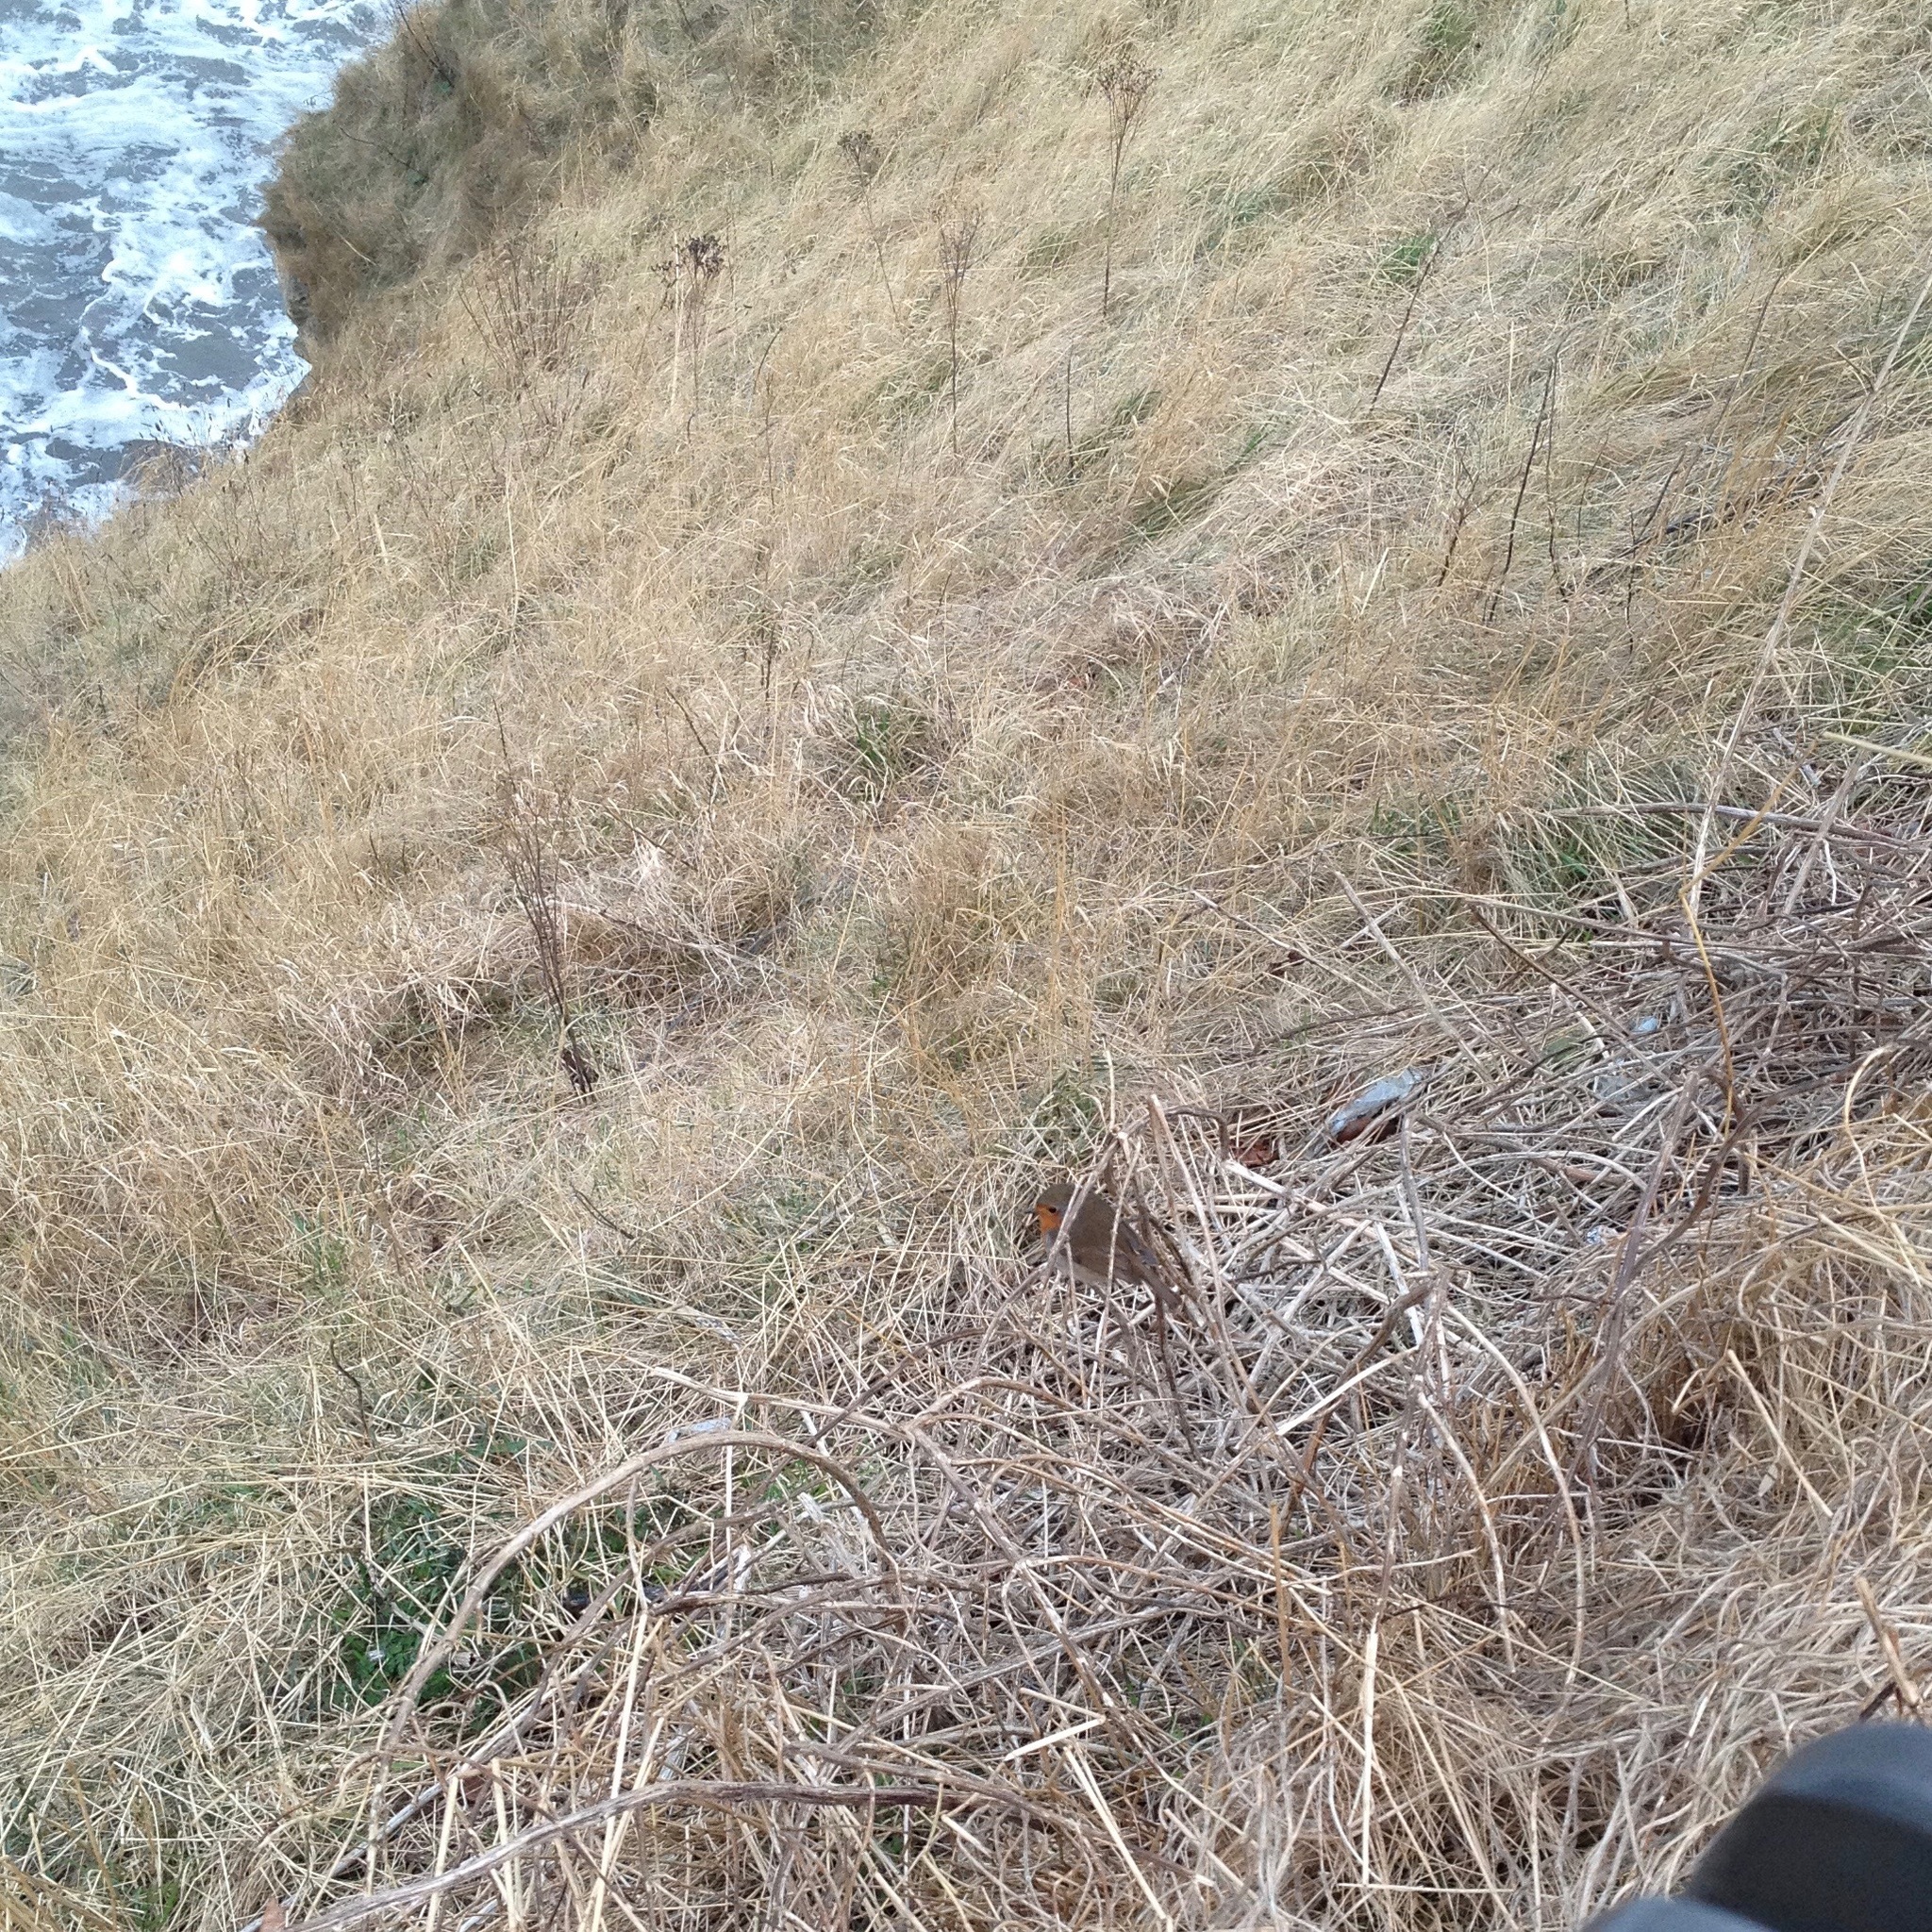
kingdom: Animalia
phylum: Chordata
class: Aves
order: Passeriformes
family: Muscicapidae
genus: Erithacus
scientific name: Erithacus rubecula
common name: European robin
